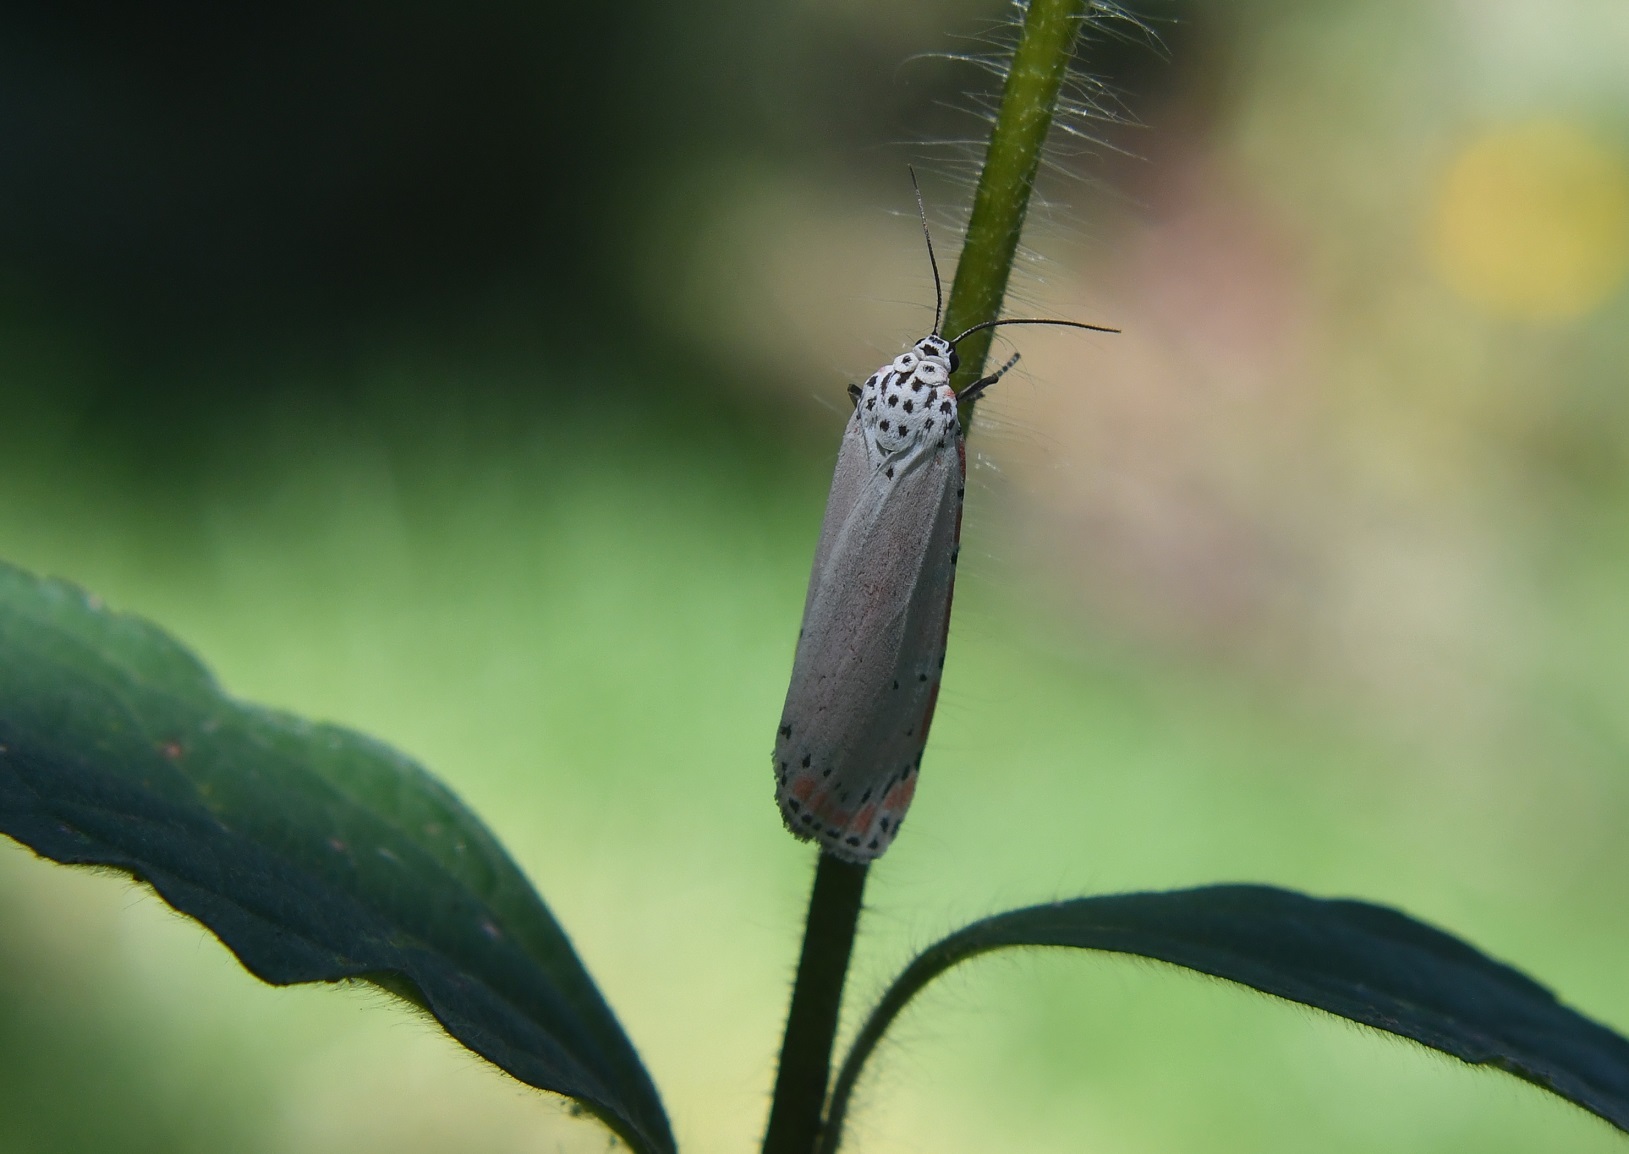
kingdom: Animalia
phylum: Arthropoda
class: Insecta
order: Lepidoptera
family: Erebidae
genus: Utetheisa
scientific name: Utetheisa ornatrix
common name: Beautiful utetheisa
